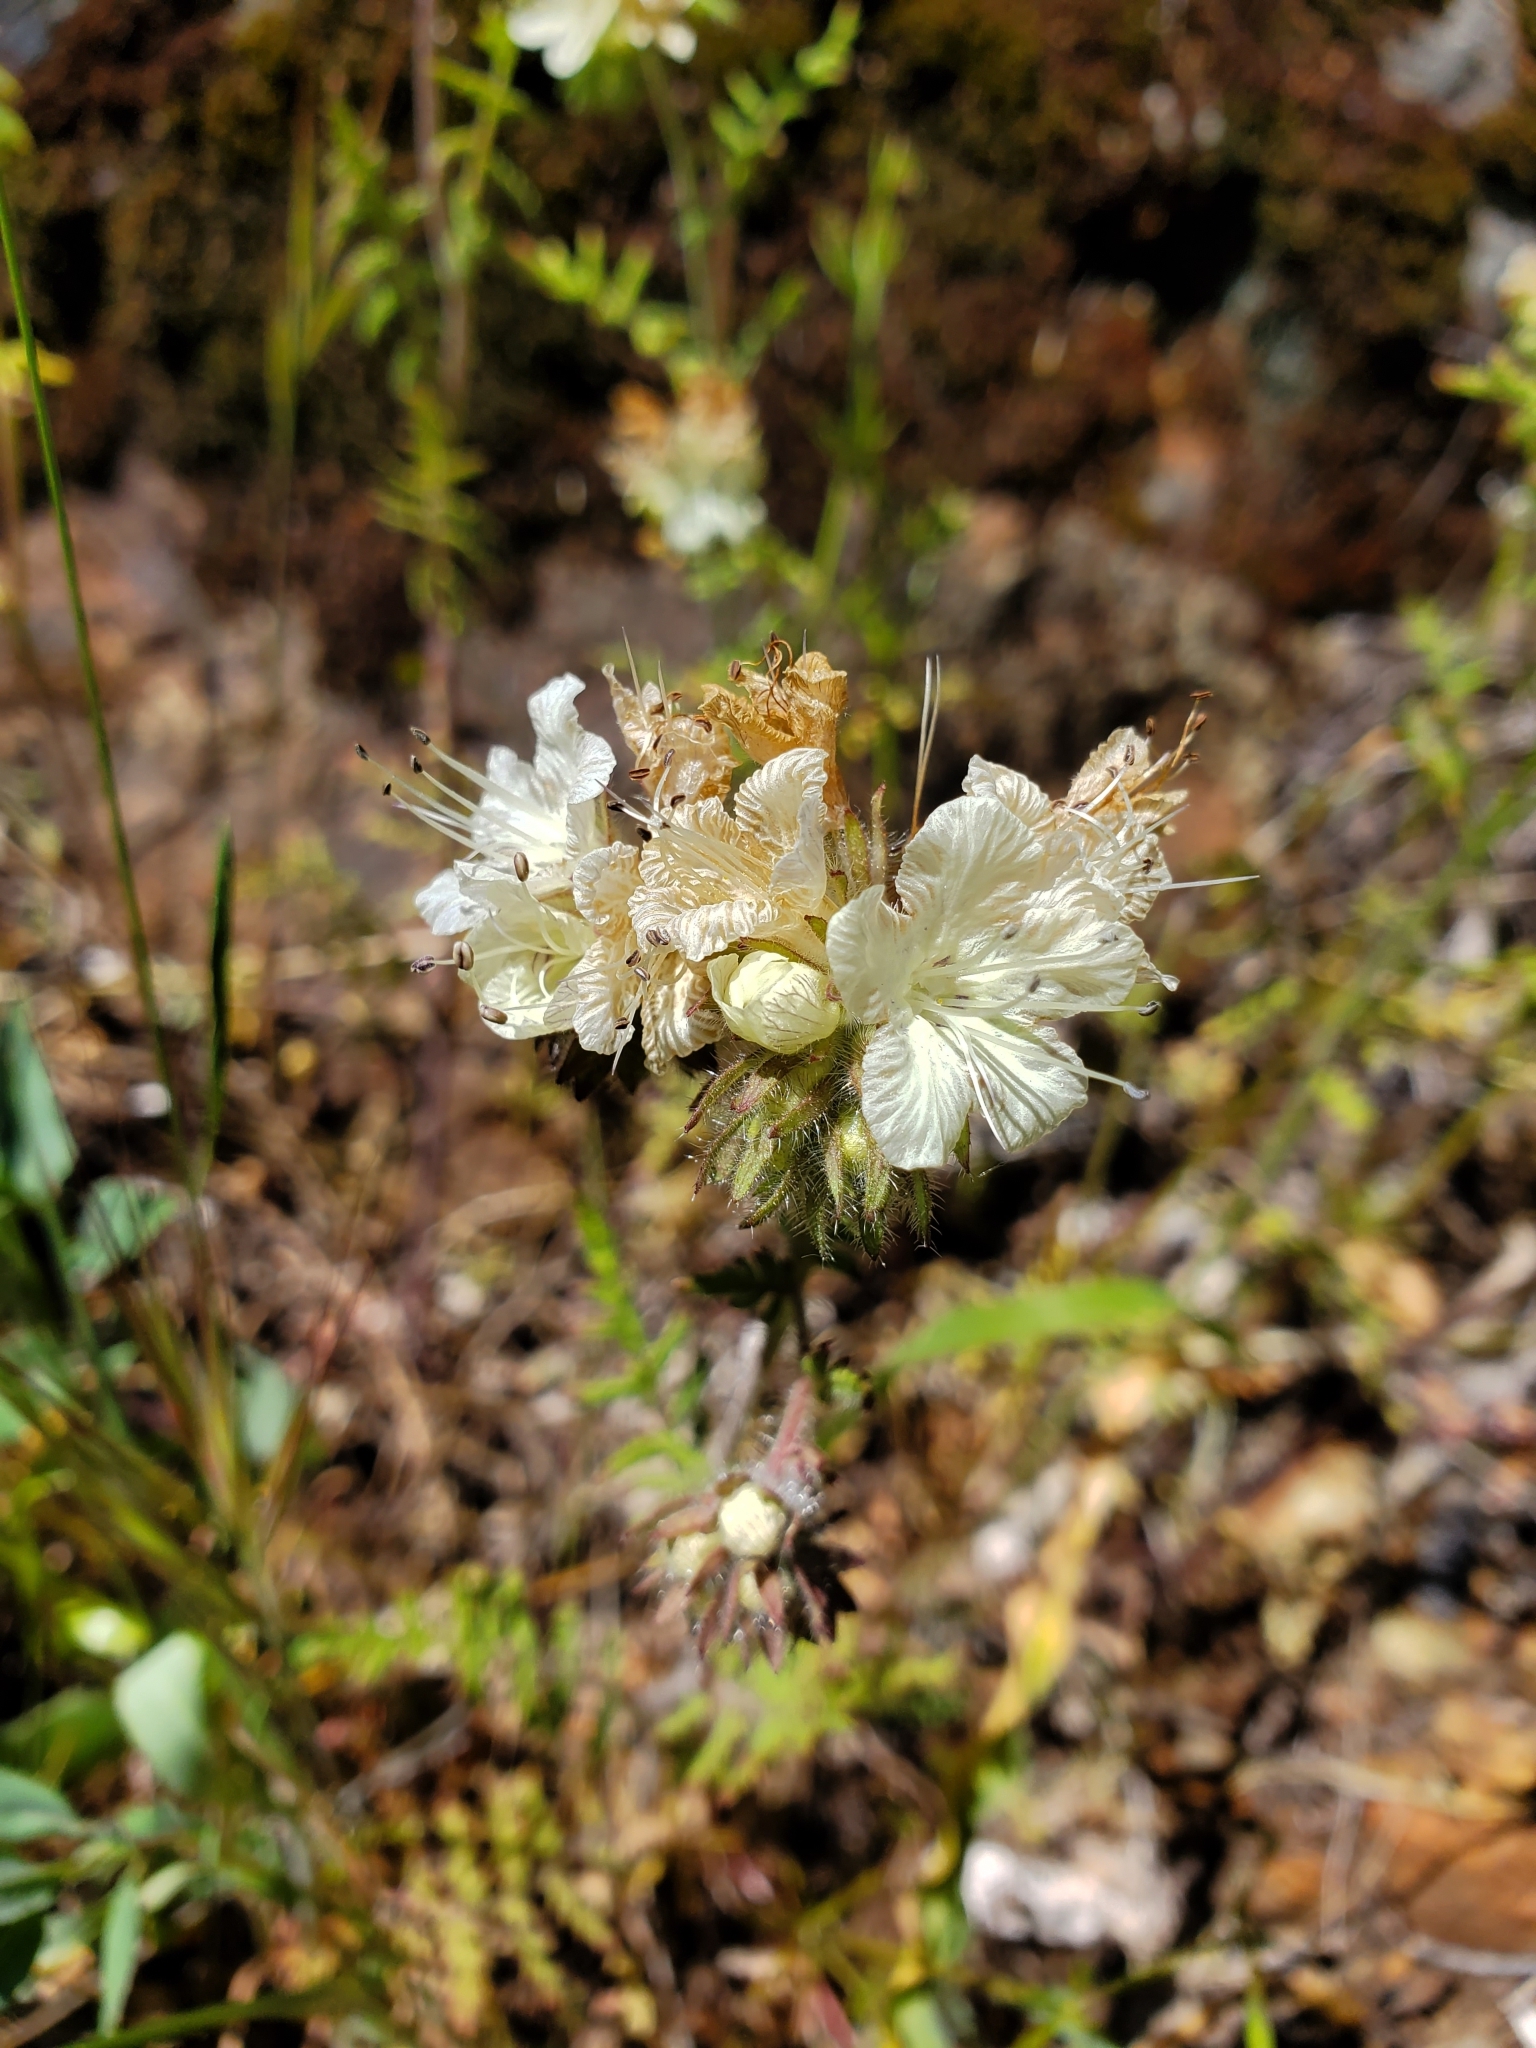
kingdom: Plantae
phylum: Tracheophyta
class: Magnoliopsida
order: Boraginales
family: Hydrophyllaceae
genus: Phacelia
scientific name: Phacelia distans
